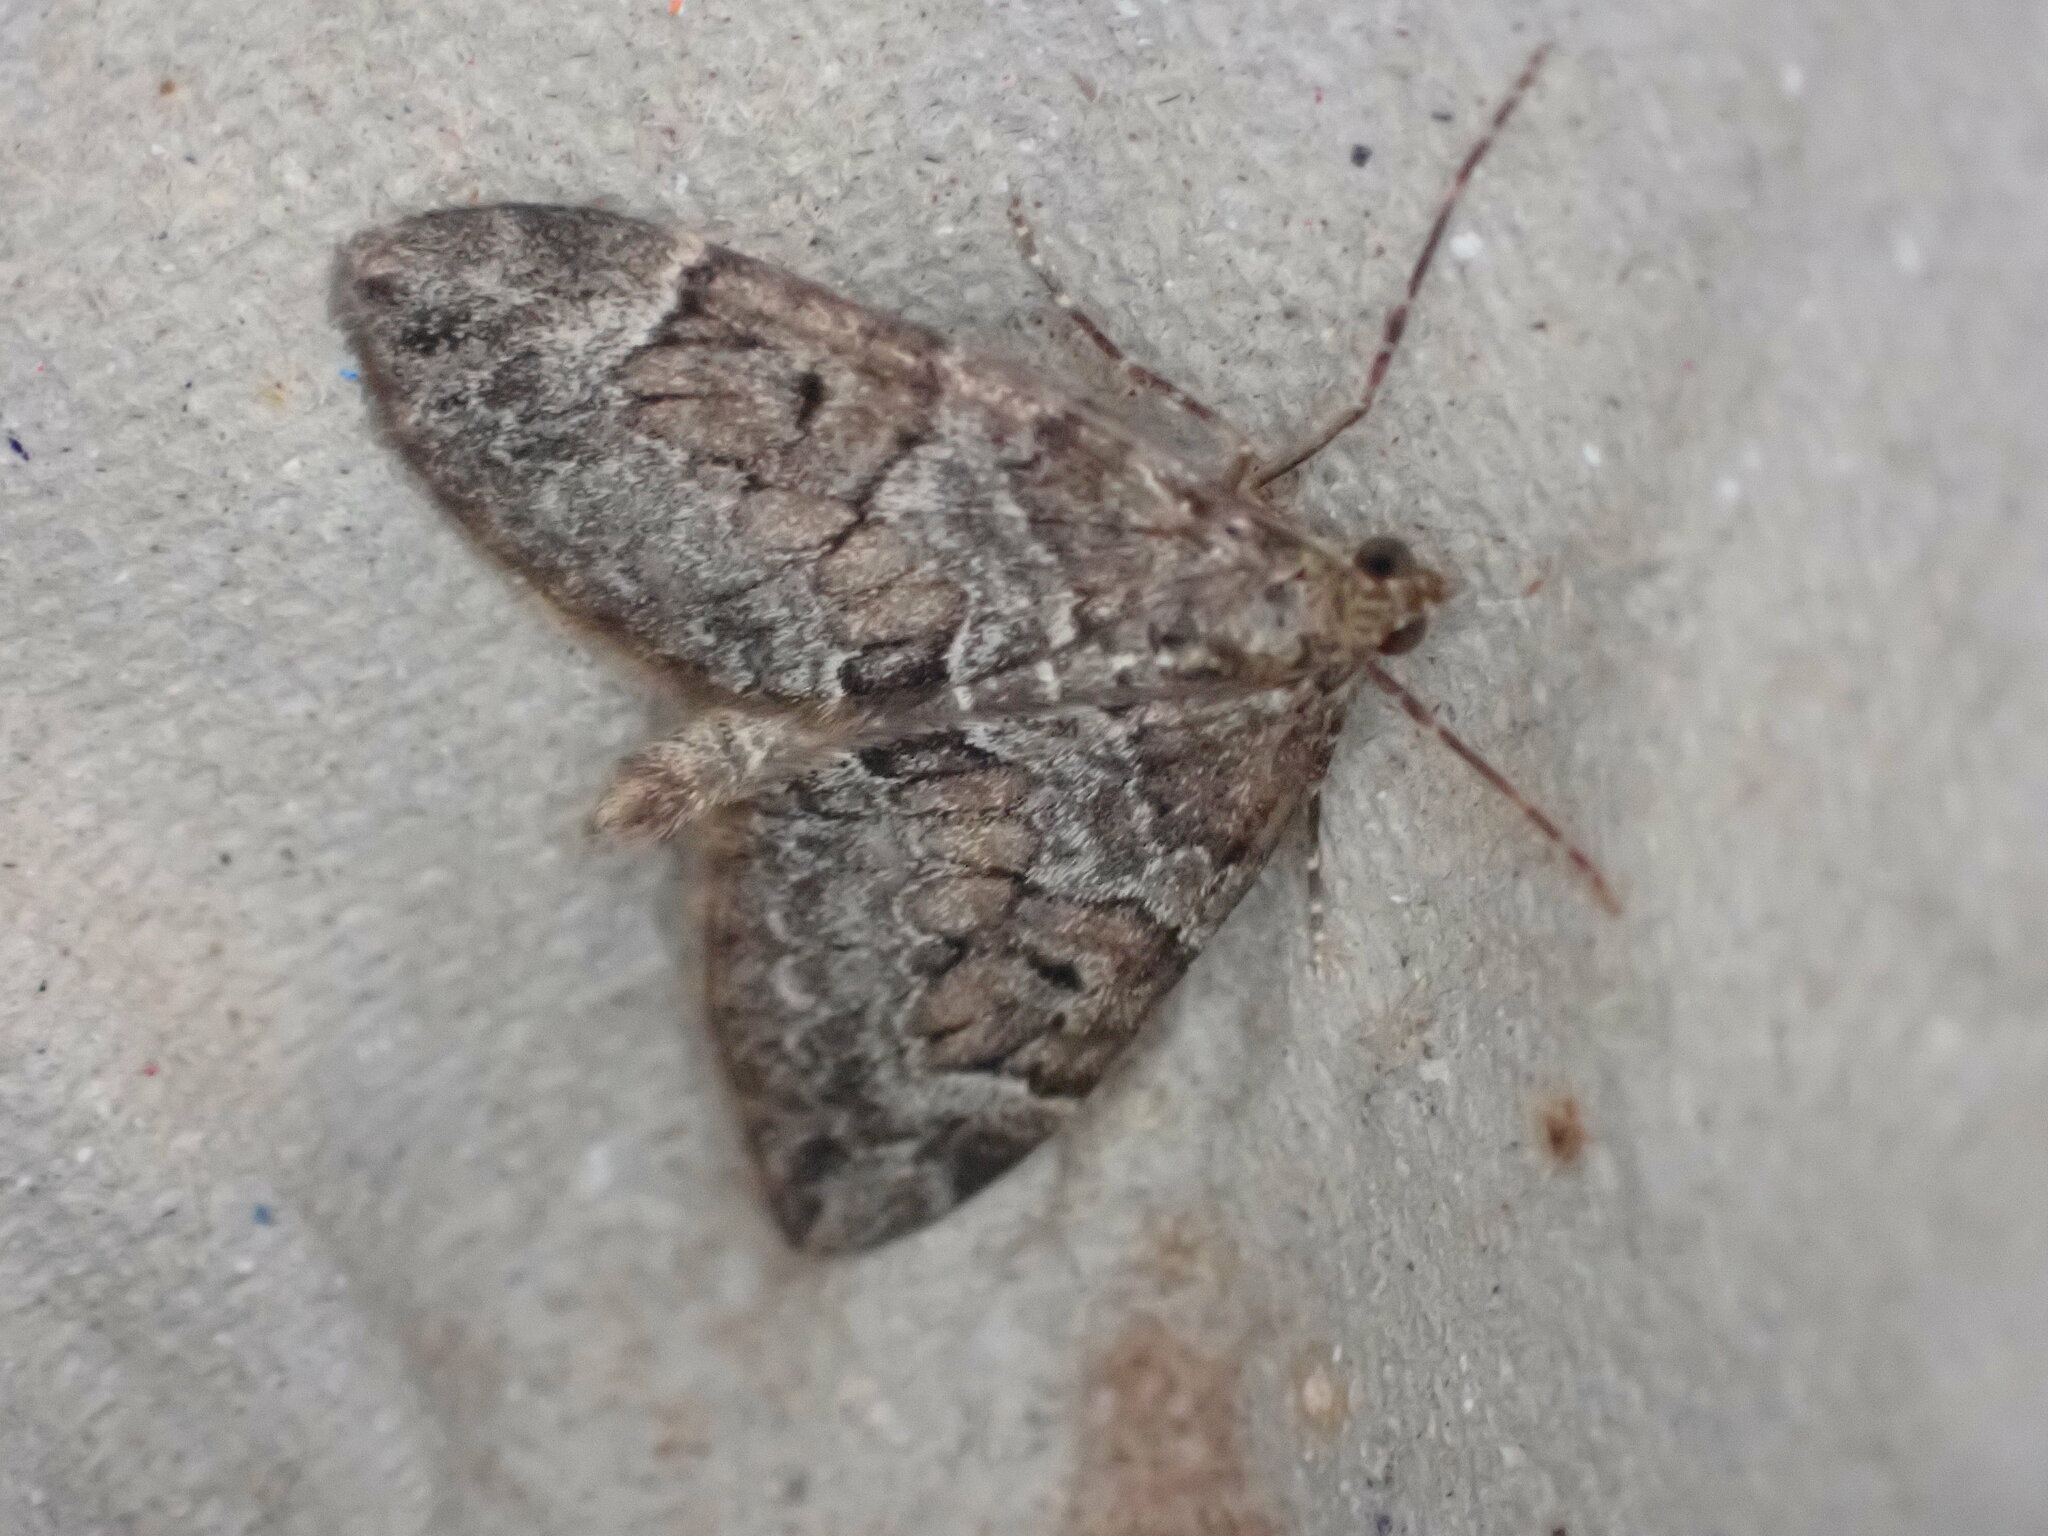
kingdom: Animalia
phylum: Arthropoda
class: Insecta
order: Lepidoptera
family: Geometridae
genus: Thera
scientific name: Thera britannica
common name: Spruce carpet
